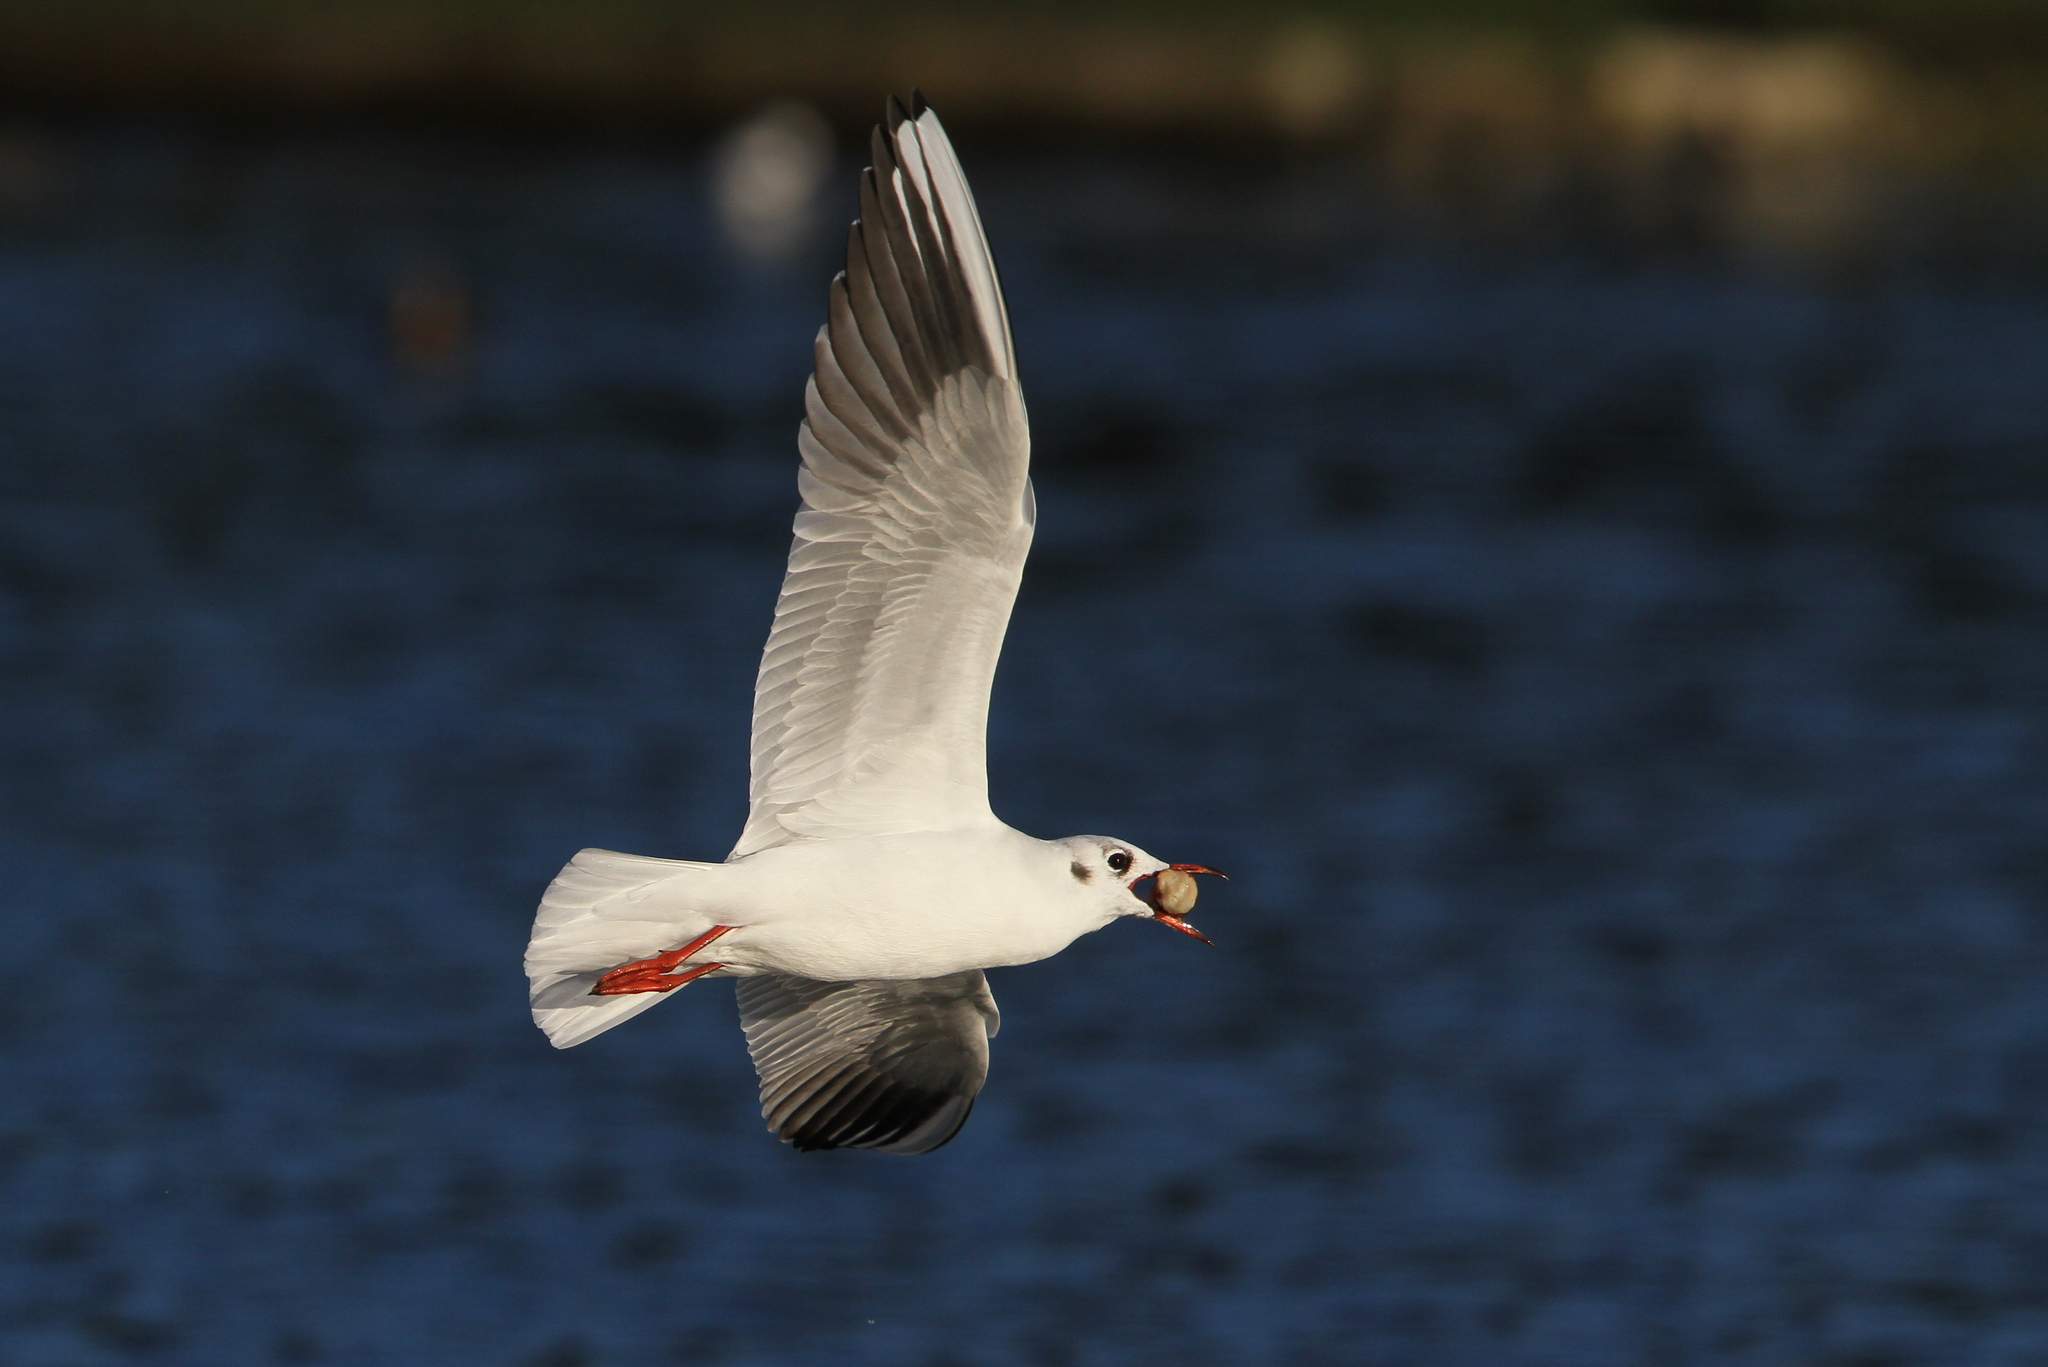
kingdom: Animalia
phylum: Chordata
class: Aves
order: Charadriiformes
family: Laridae
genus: Chroicocephalus
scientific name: Chroicocephalus ridibundus
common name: Black-headed gull
